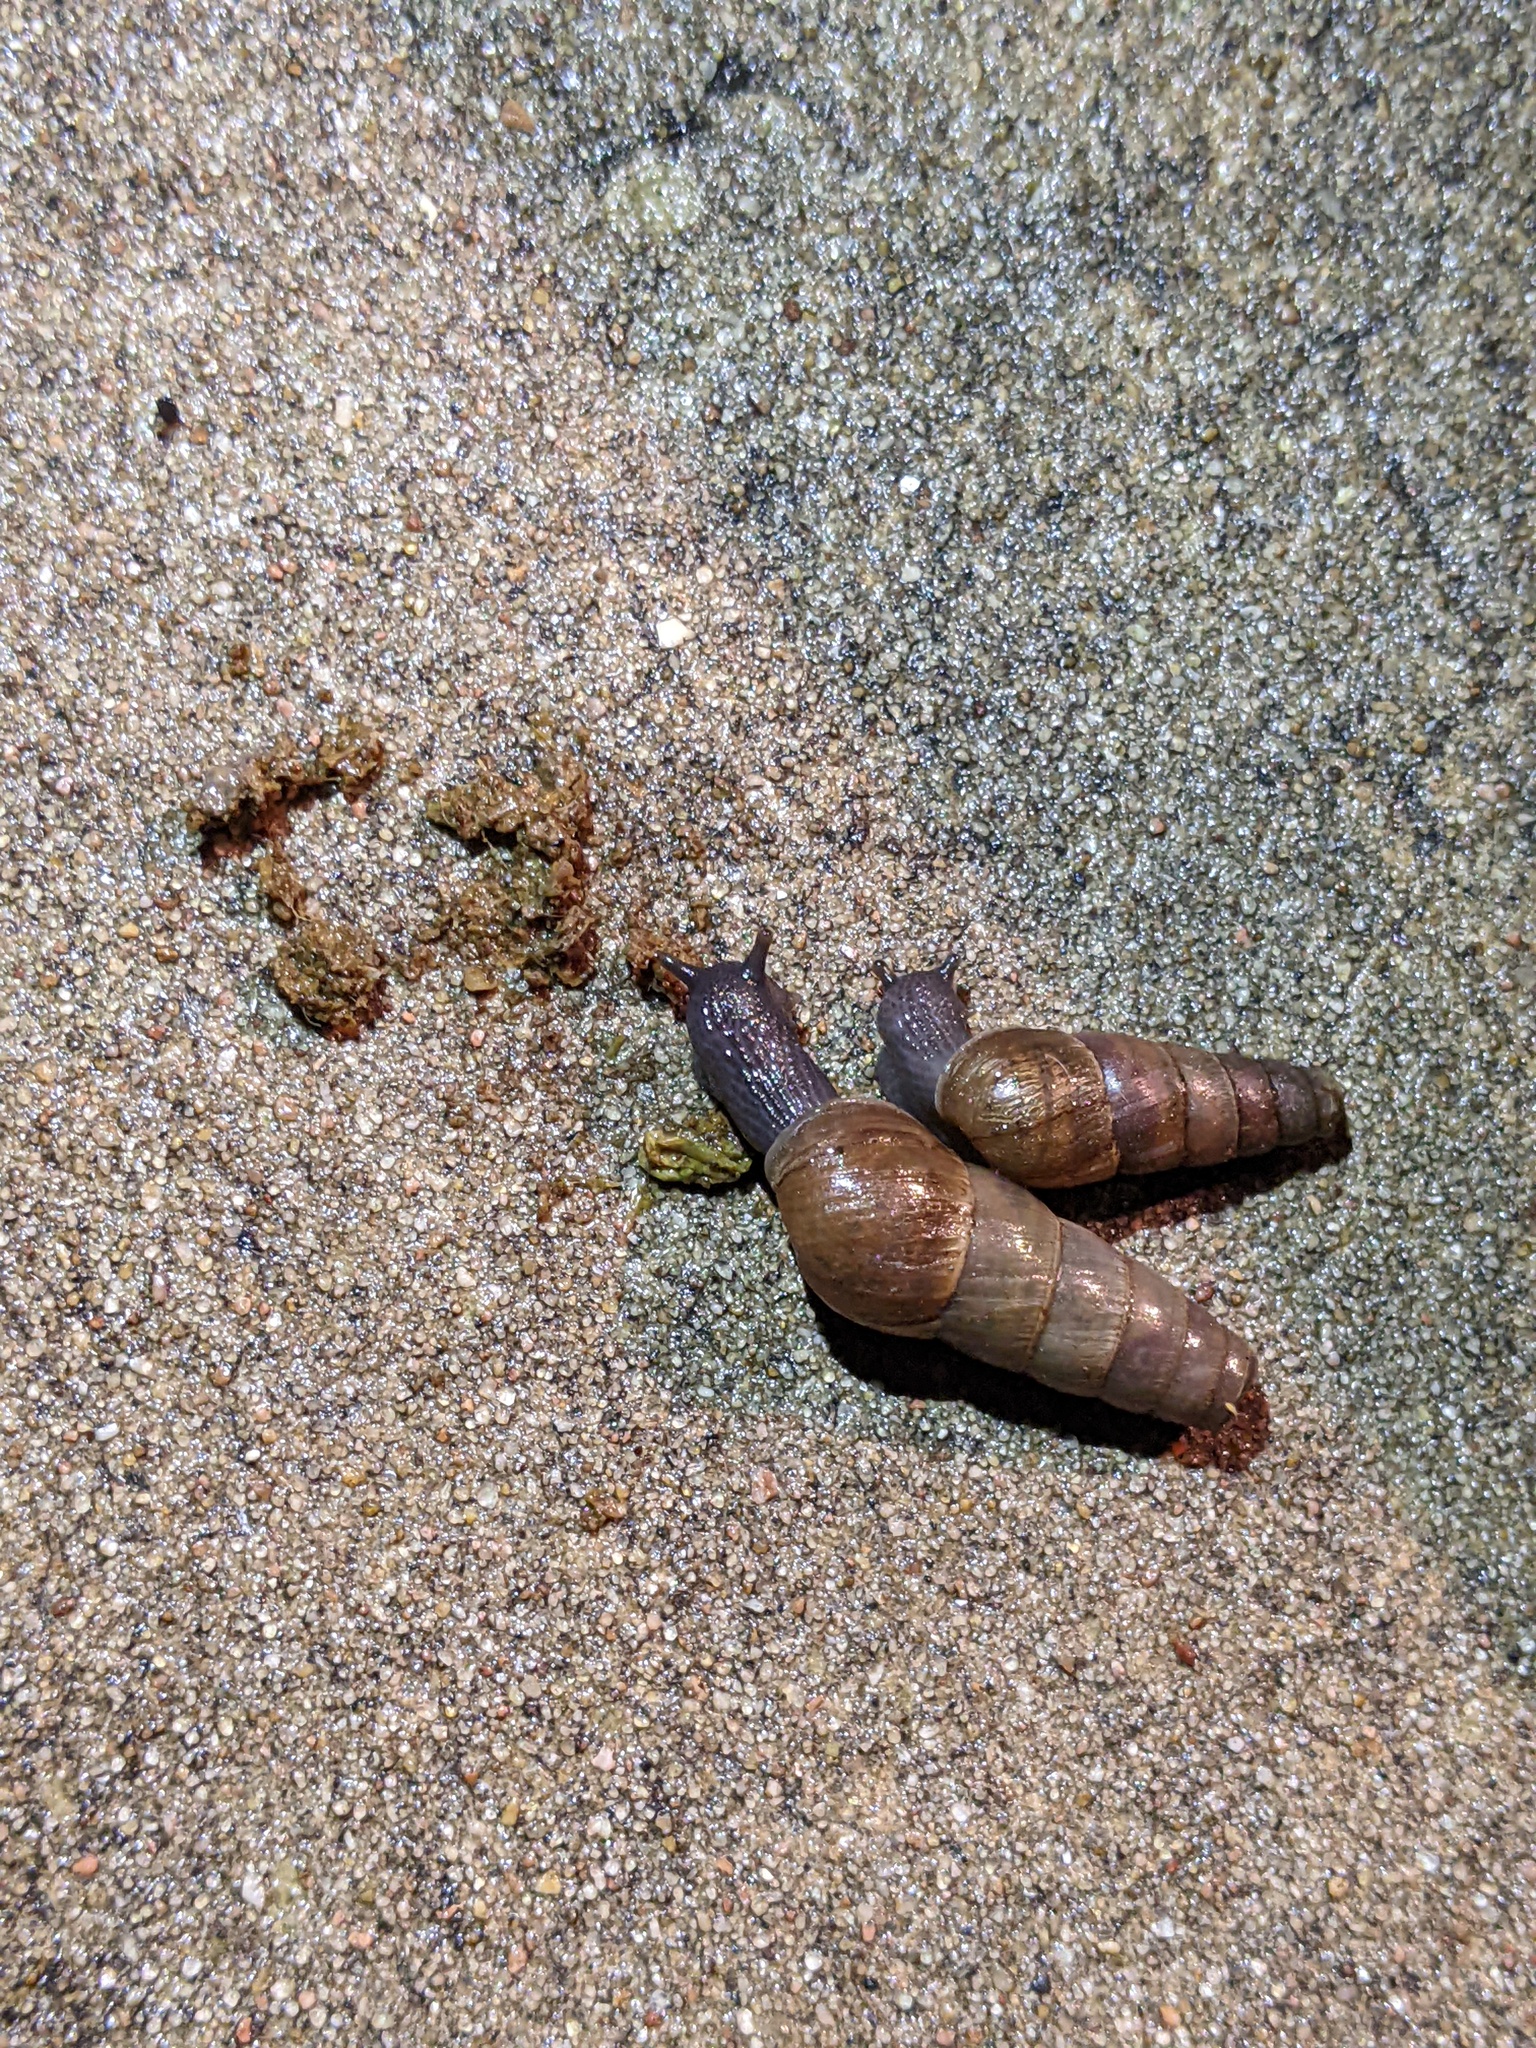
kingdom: Animalia
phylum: Mollusca
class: Gastropoda
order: Stylommatophora
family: Achatinidae
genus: Rumina
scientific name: Rumina decollata
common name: Decollate snail
